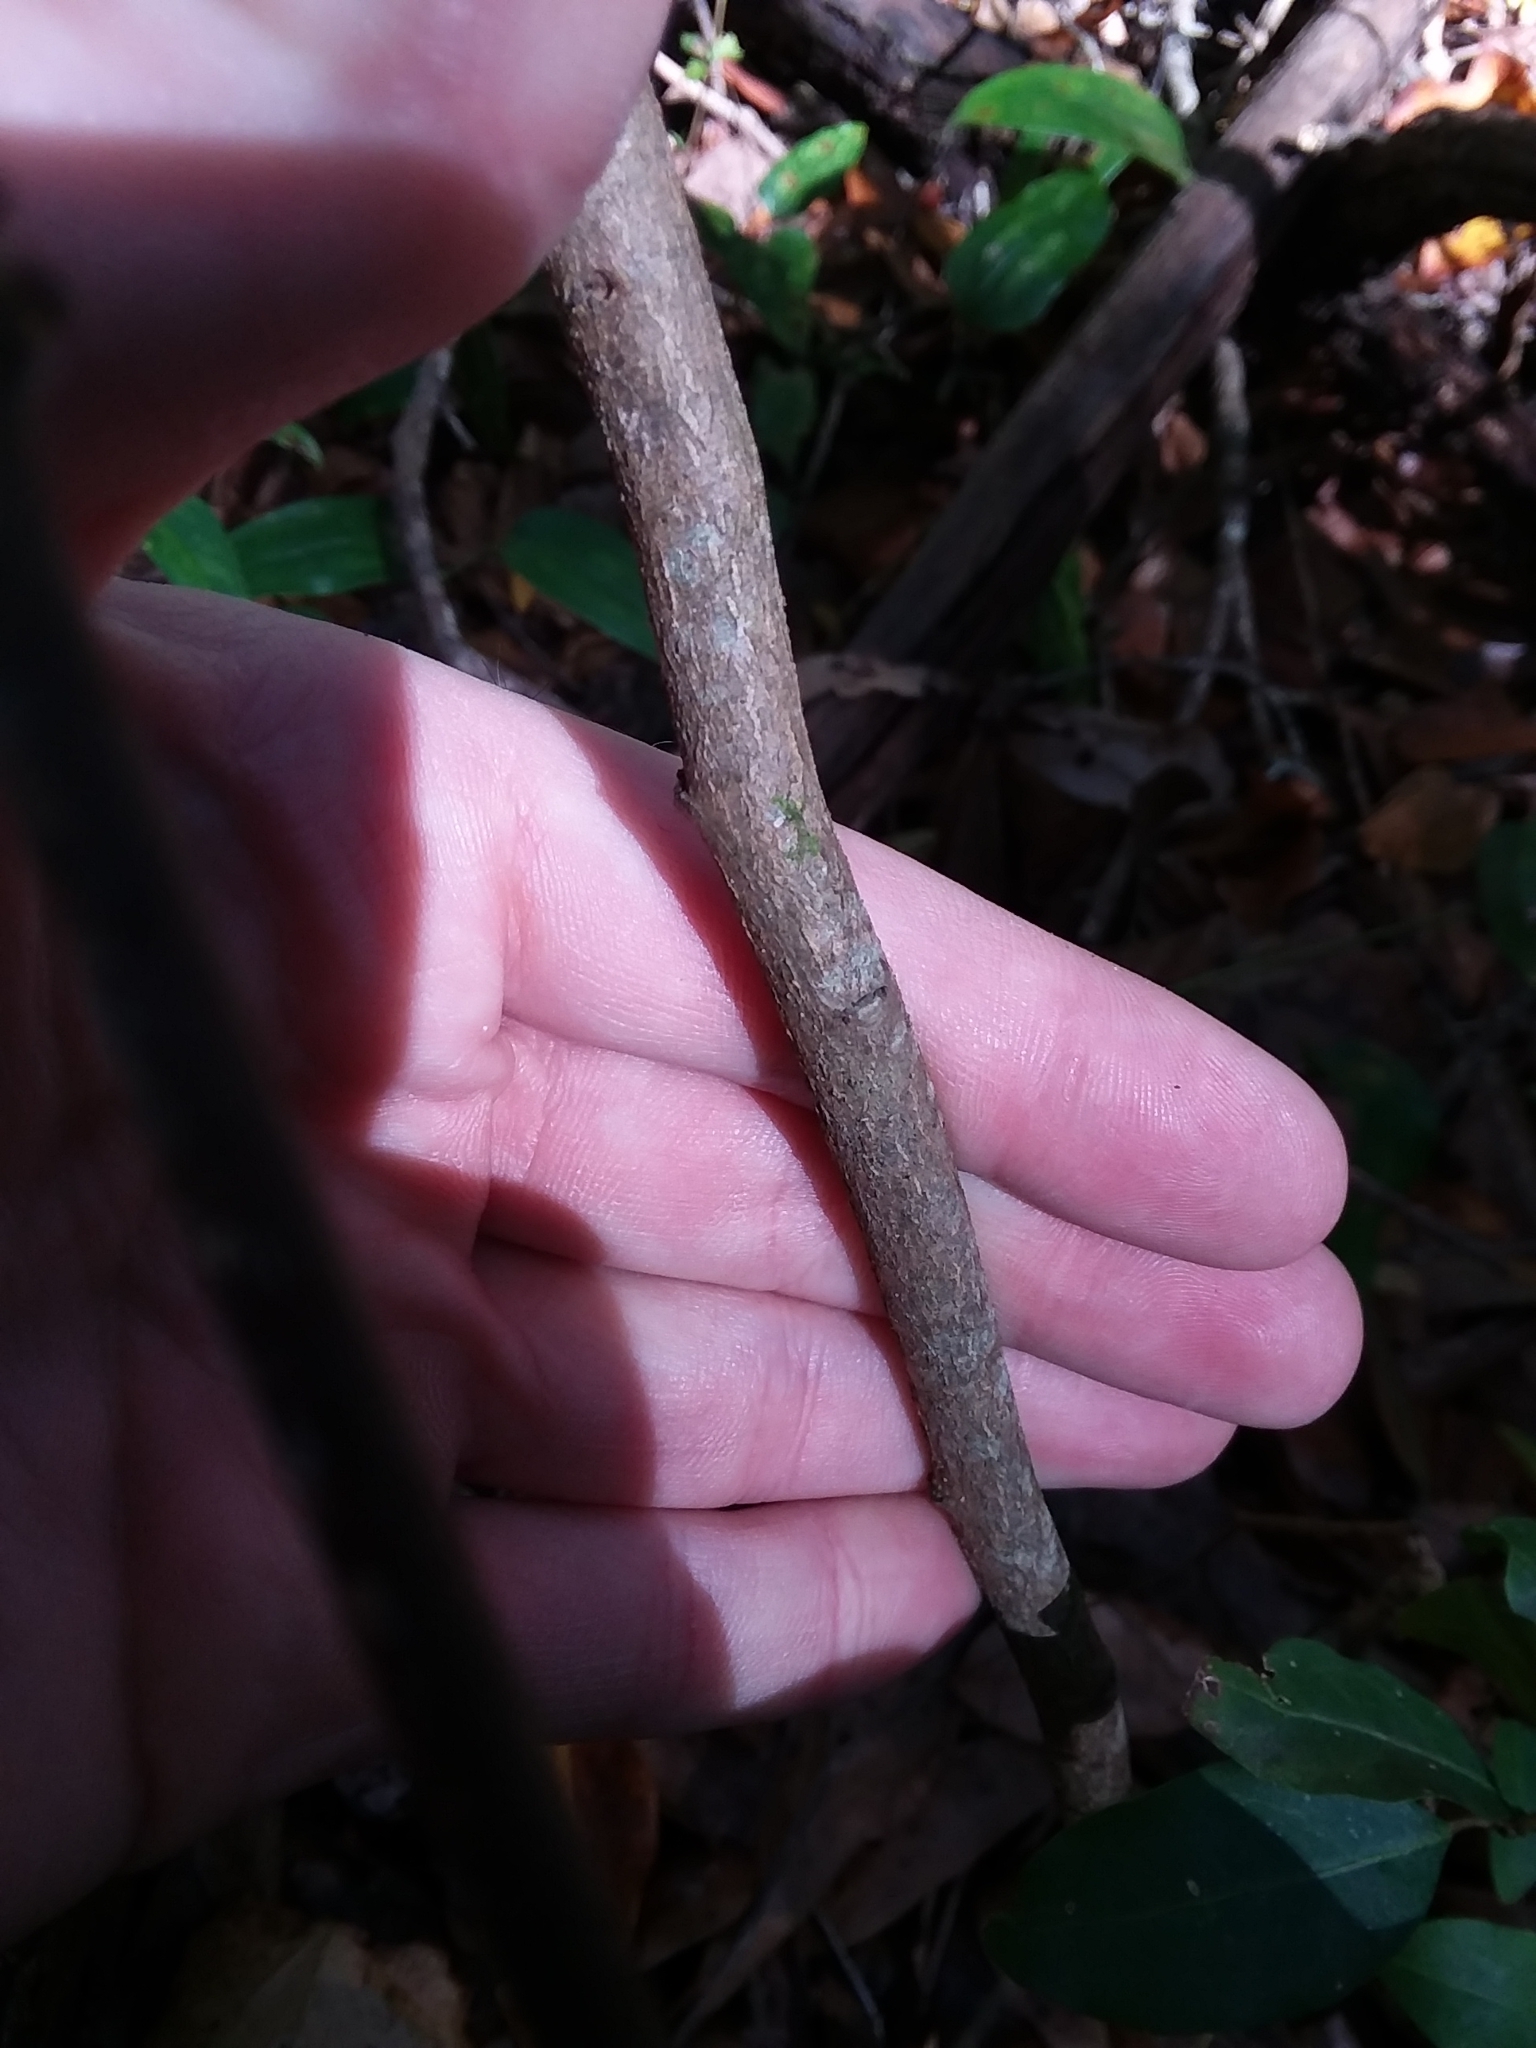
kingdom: Plantae
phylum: Tracheophyta
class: Magnoliopsida
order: Malpighiales
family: Euphorbiaceae
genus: Ditrysinia
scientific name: Ditrysinia fruticosa
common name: Gulf sebastian-bush
